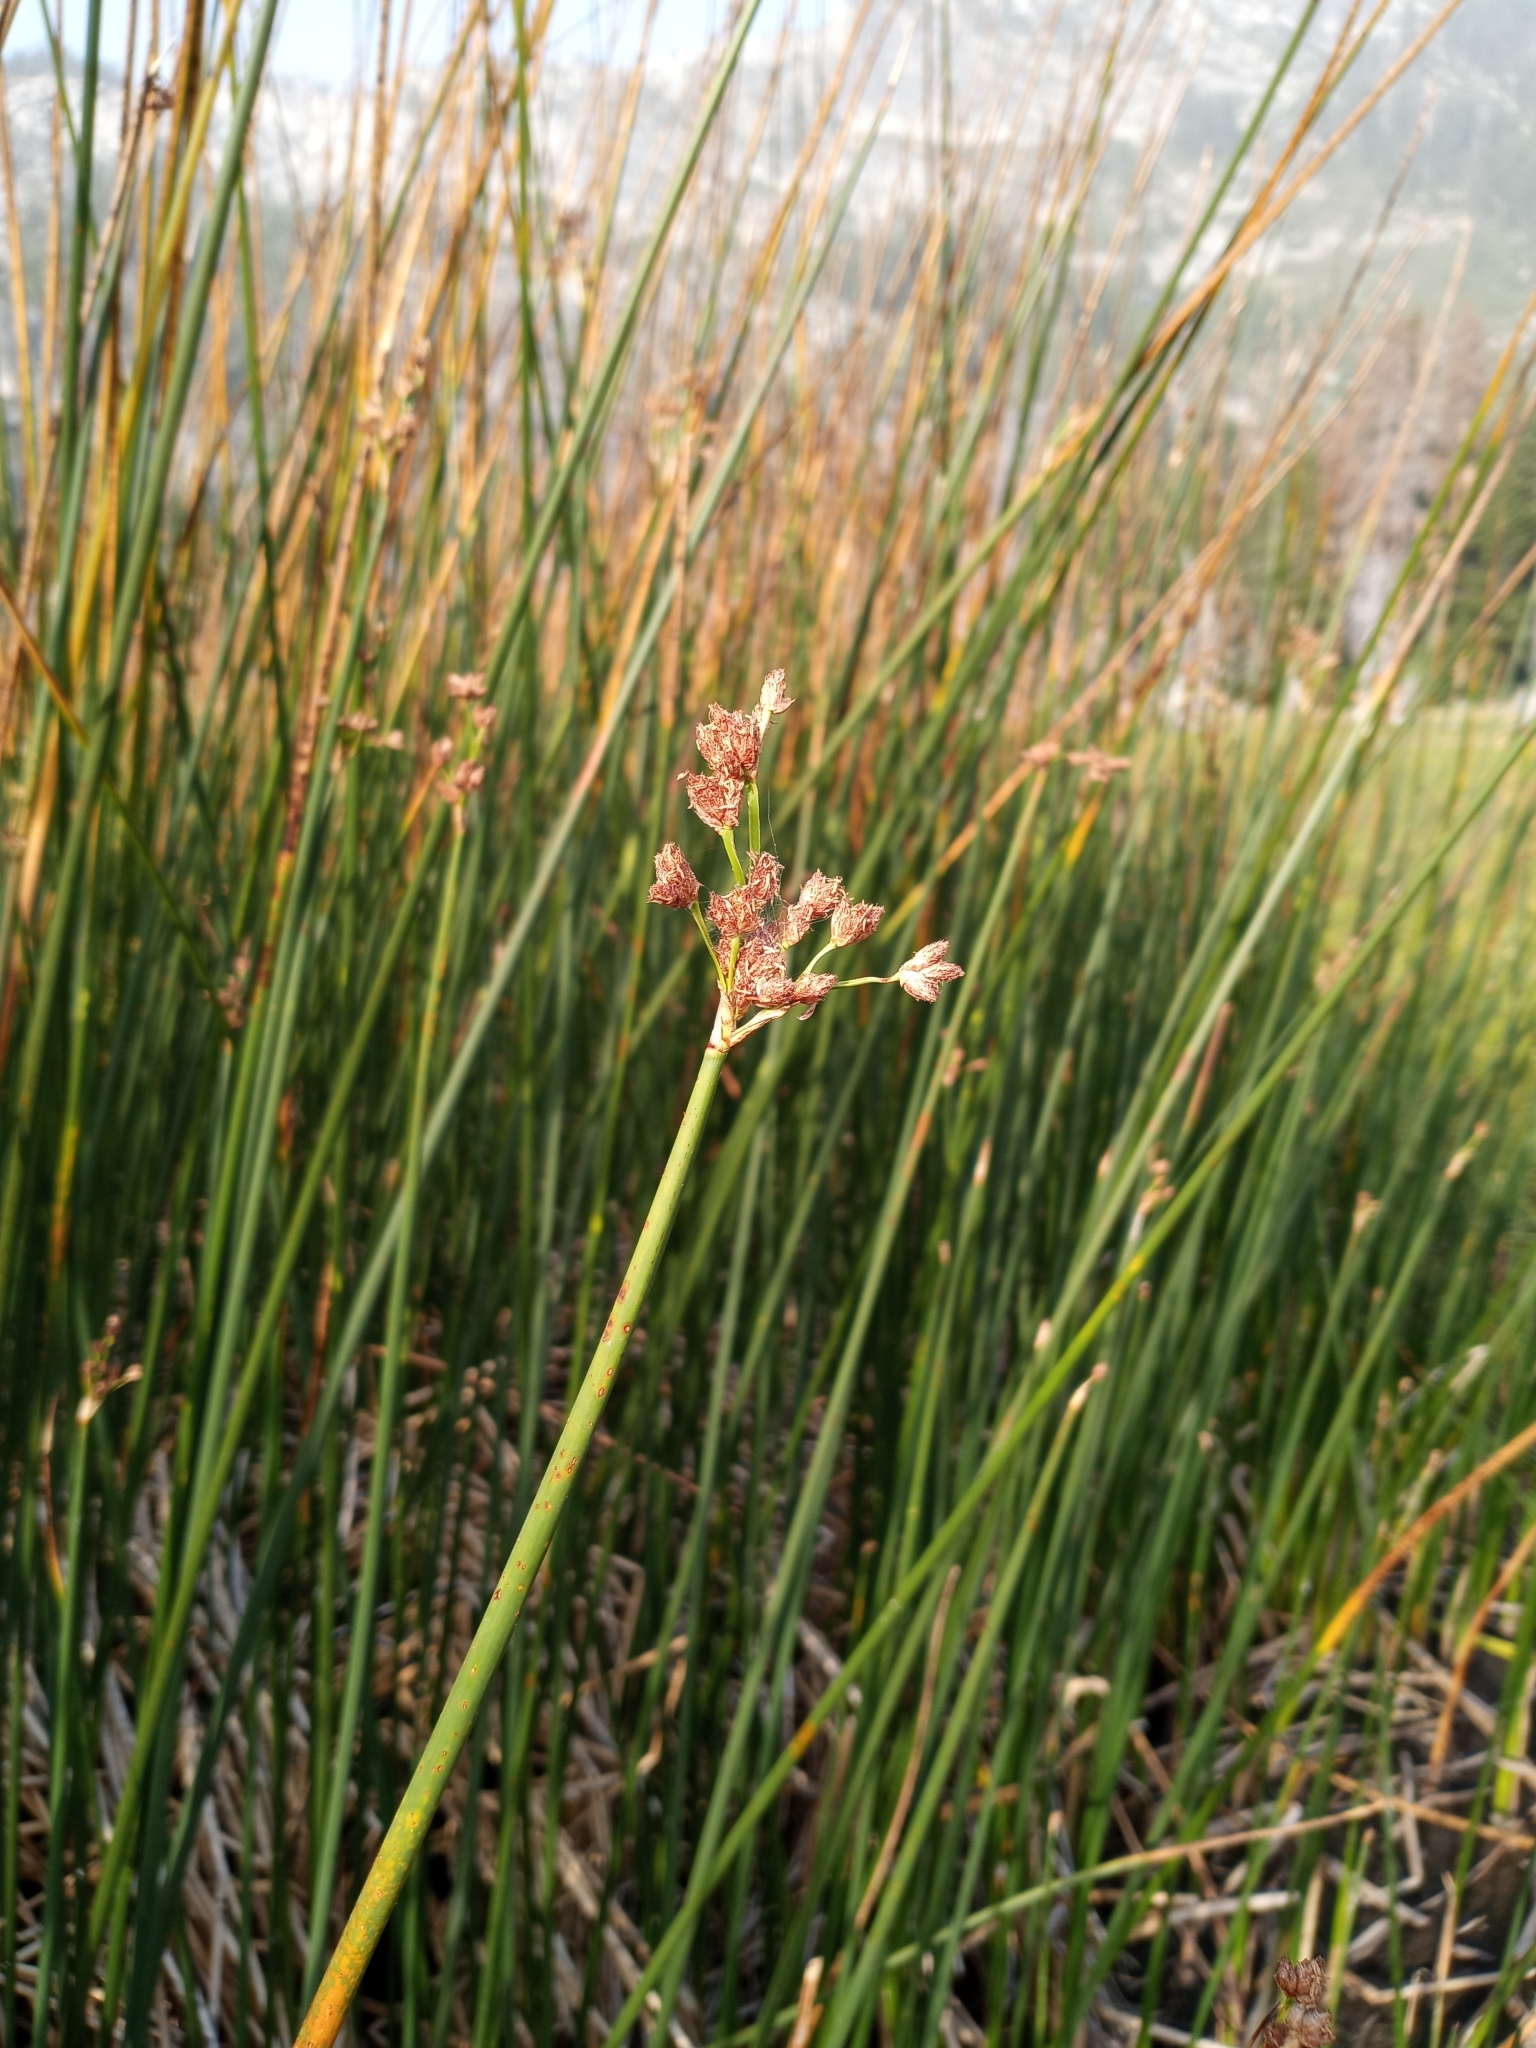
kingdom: Plantae
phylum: Tracheophyta
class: Liliopsida
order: Poales
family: Cyperaceae
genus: Schoenoplectus
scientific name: Schoenoplectus acutus
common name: Hardstem bulrush
